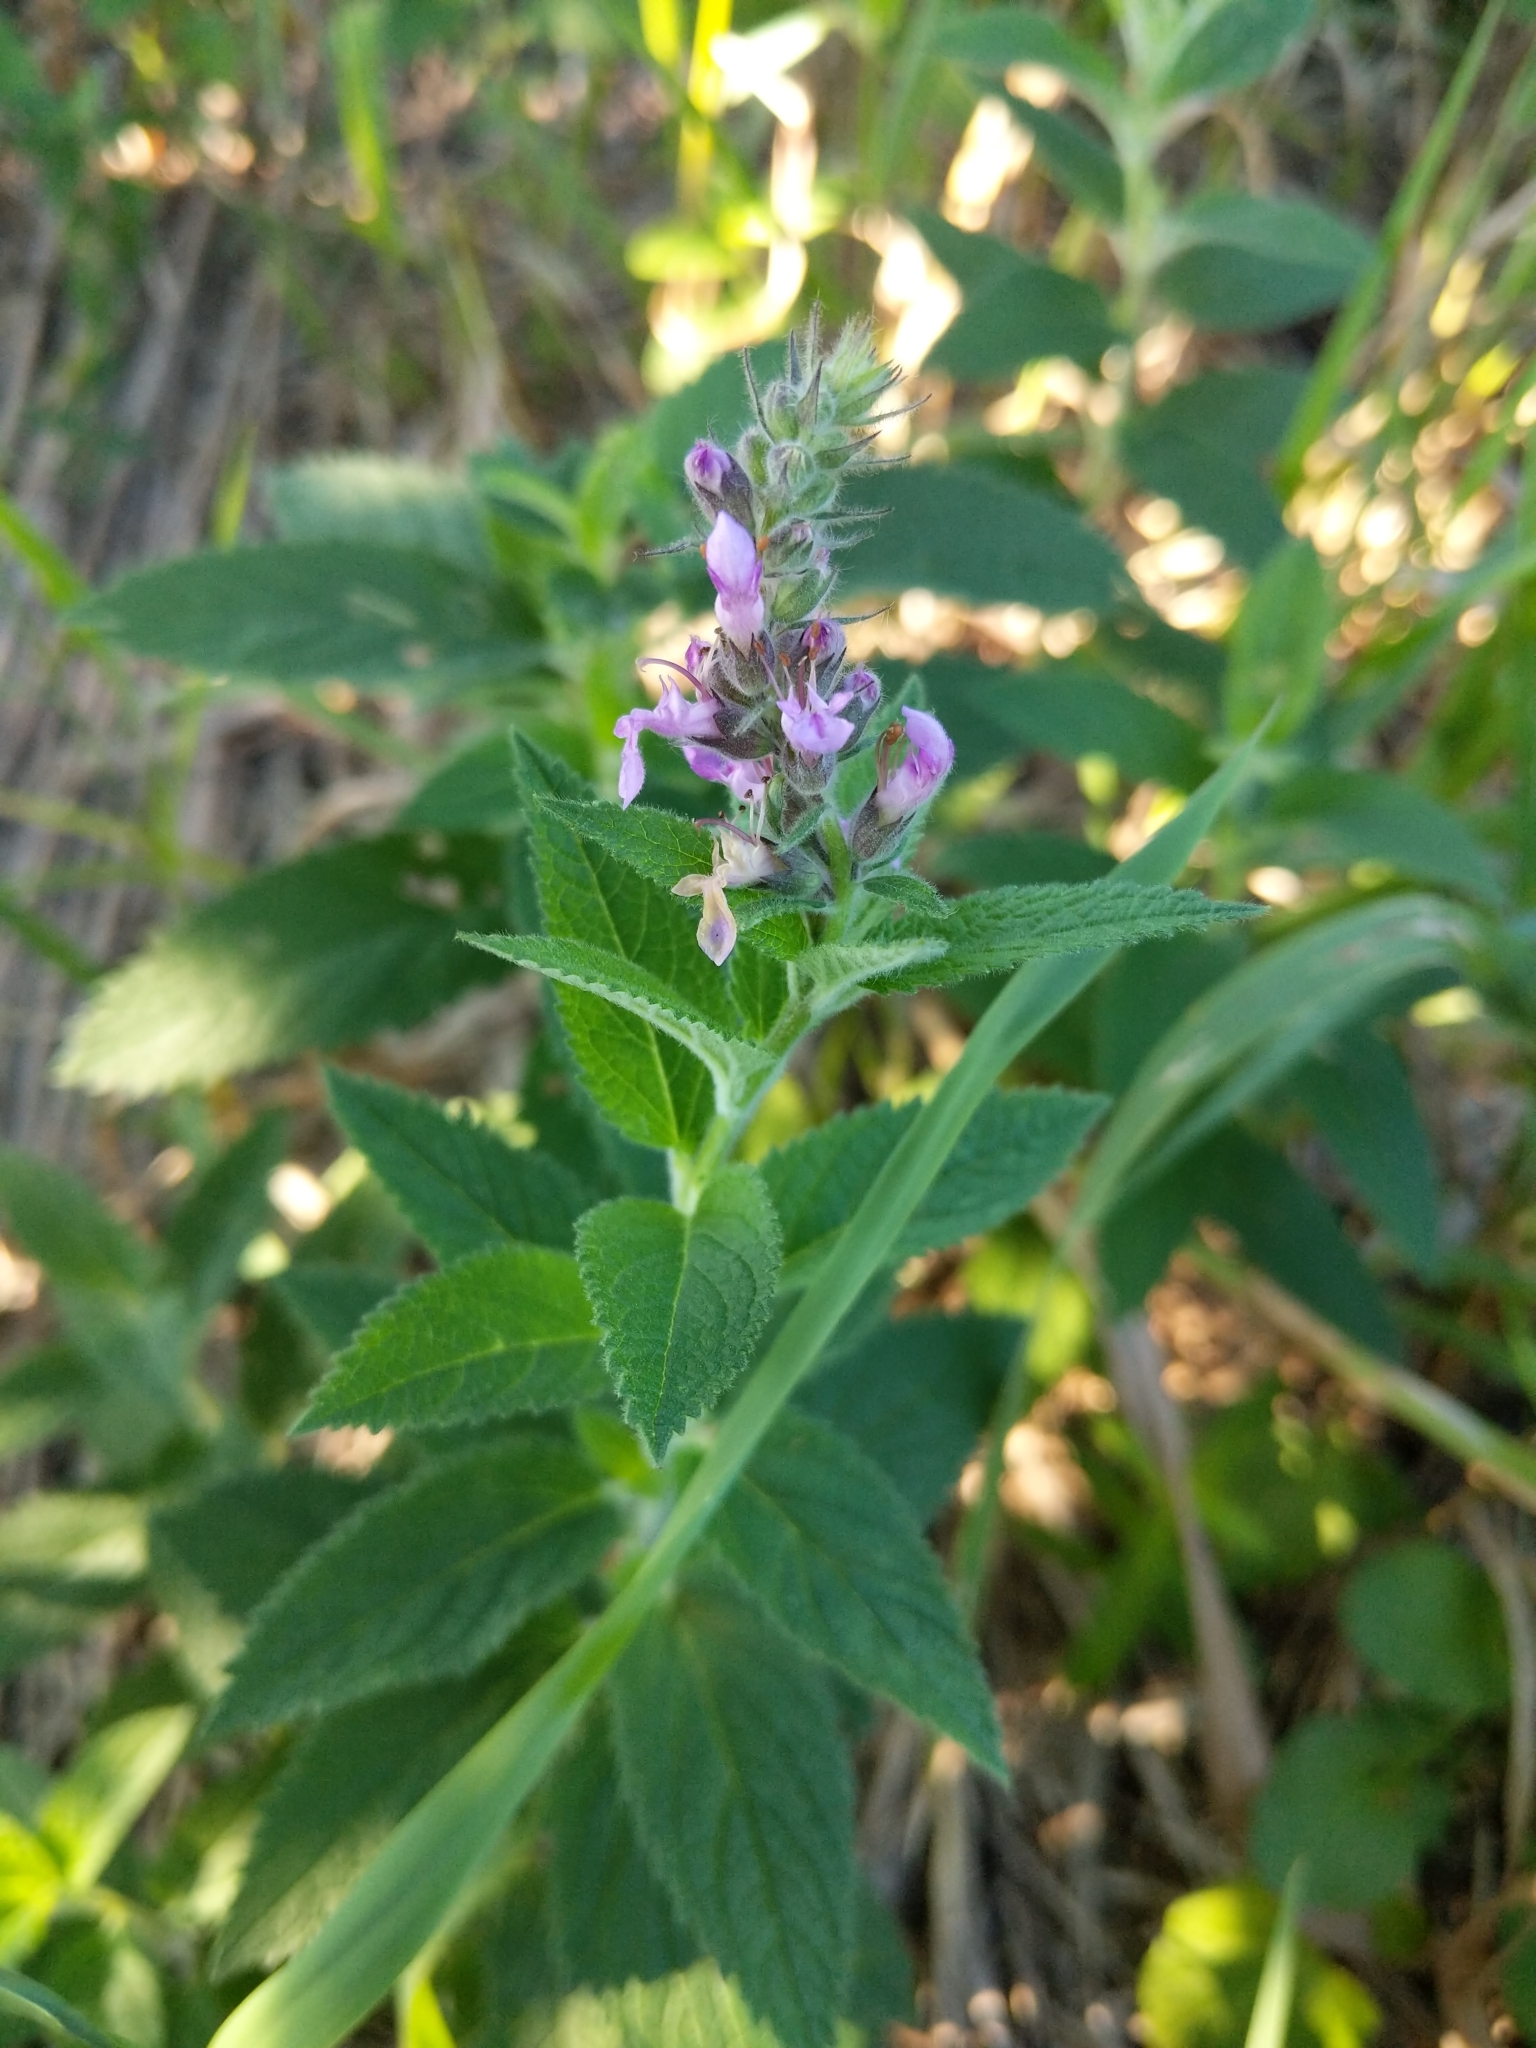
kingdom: Plantae
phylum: Tracheophyta
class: Magnoliopsida
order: Lamiales
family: Lamiaceae
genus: Teucrium
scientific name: Teucrium canadense
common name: American germander
